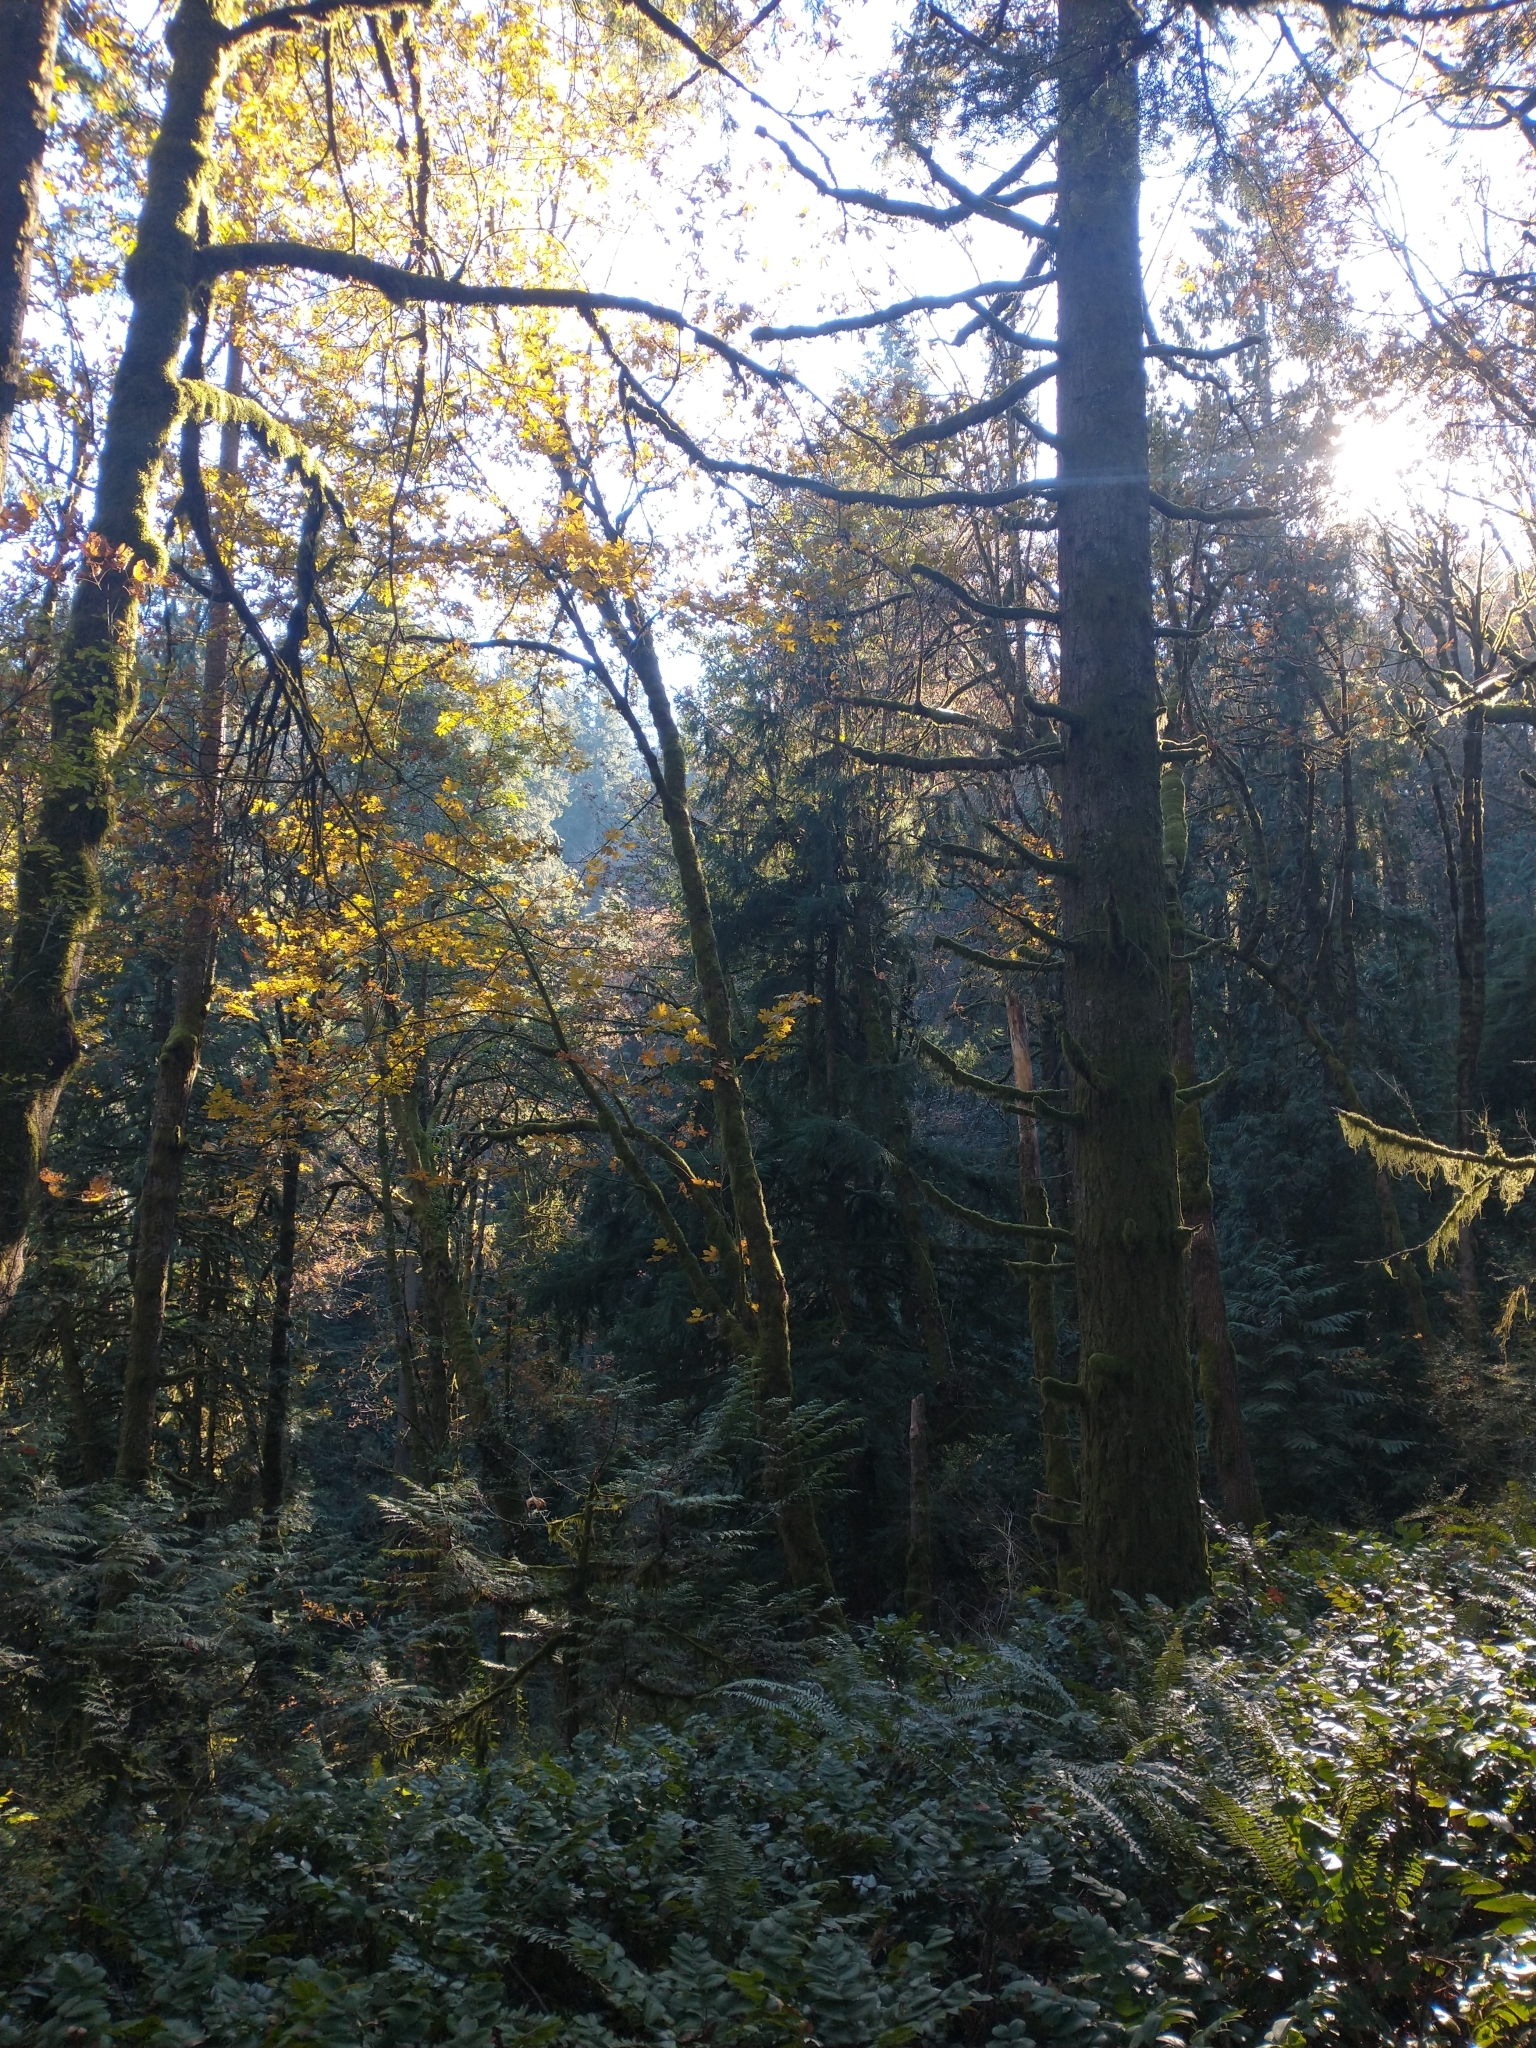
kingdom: Plantae
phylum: Tracheophyta
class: Pinopsida
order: Pinales
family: Pinaceae
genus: Pseudotsuga
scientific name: Pseudotsuga menziesii
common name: Douglas fir
